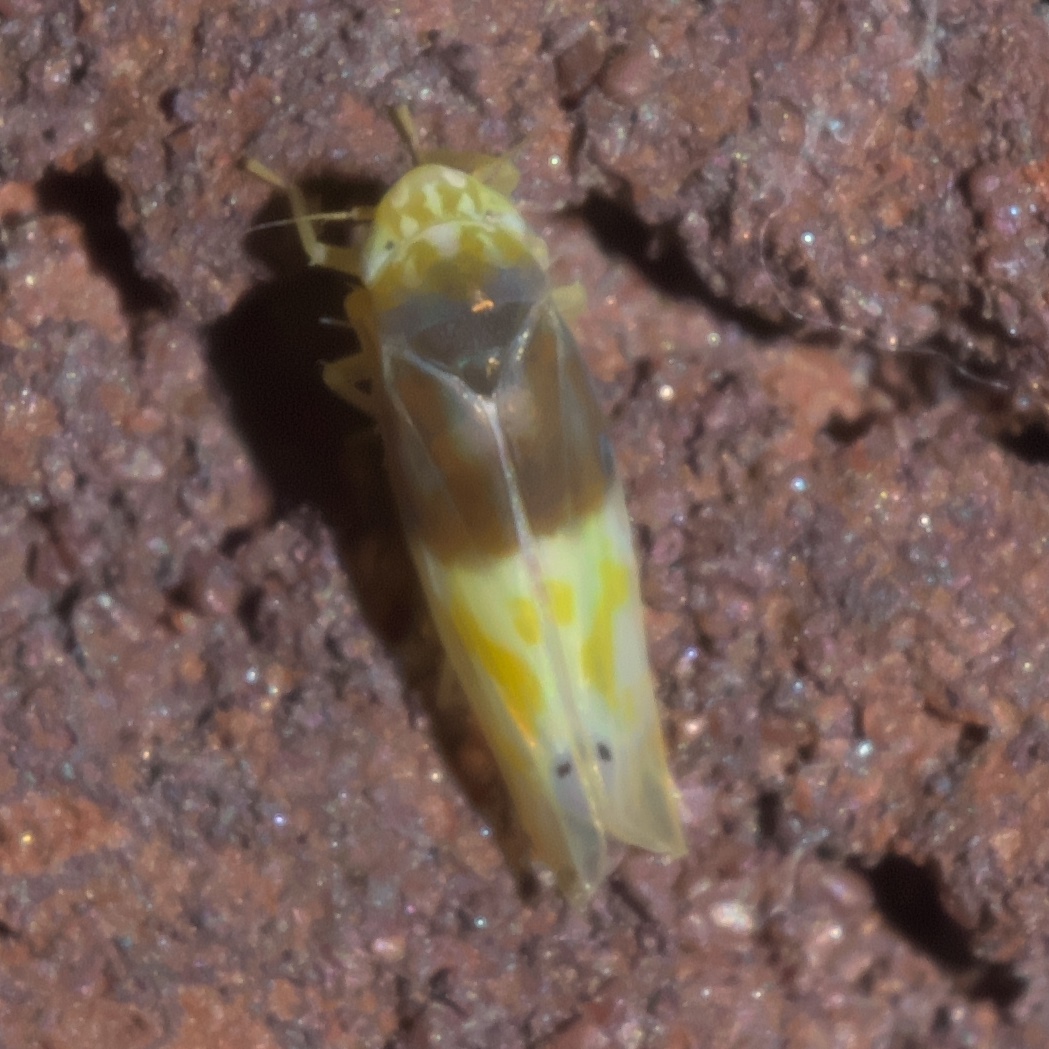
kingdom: Animalia
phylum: Arthropoda
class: Insecta
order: Hemiptera
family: Cicadellidae
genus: Eratoneura
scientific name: Eratoneura basilaris
